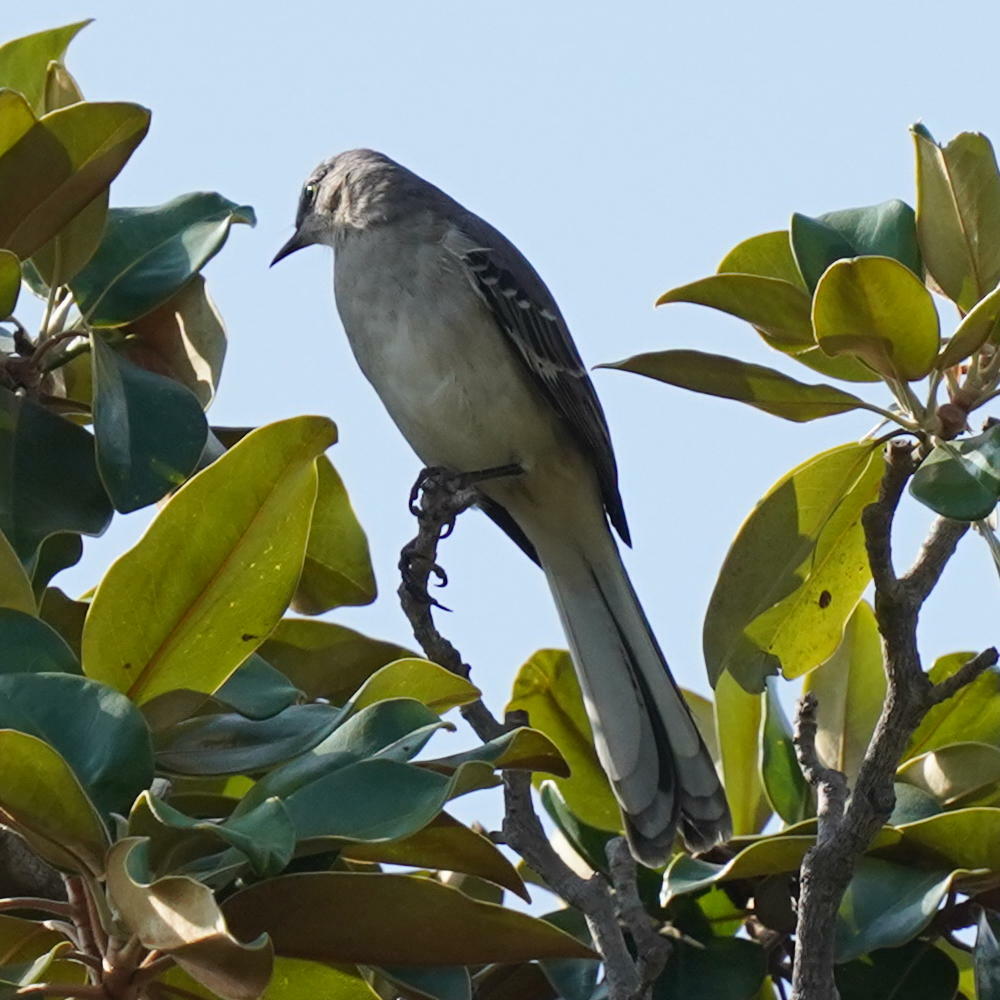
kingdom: Animalia
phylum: Chordata
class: Aves
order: Passeriformes
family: Mimidae
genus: Mimus
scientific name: Mimus polyglottos
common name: Northern mockingbird
